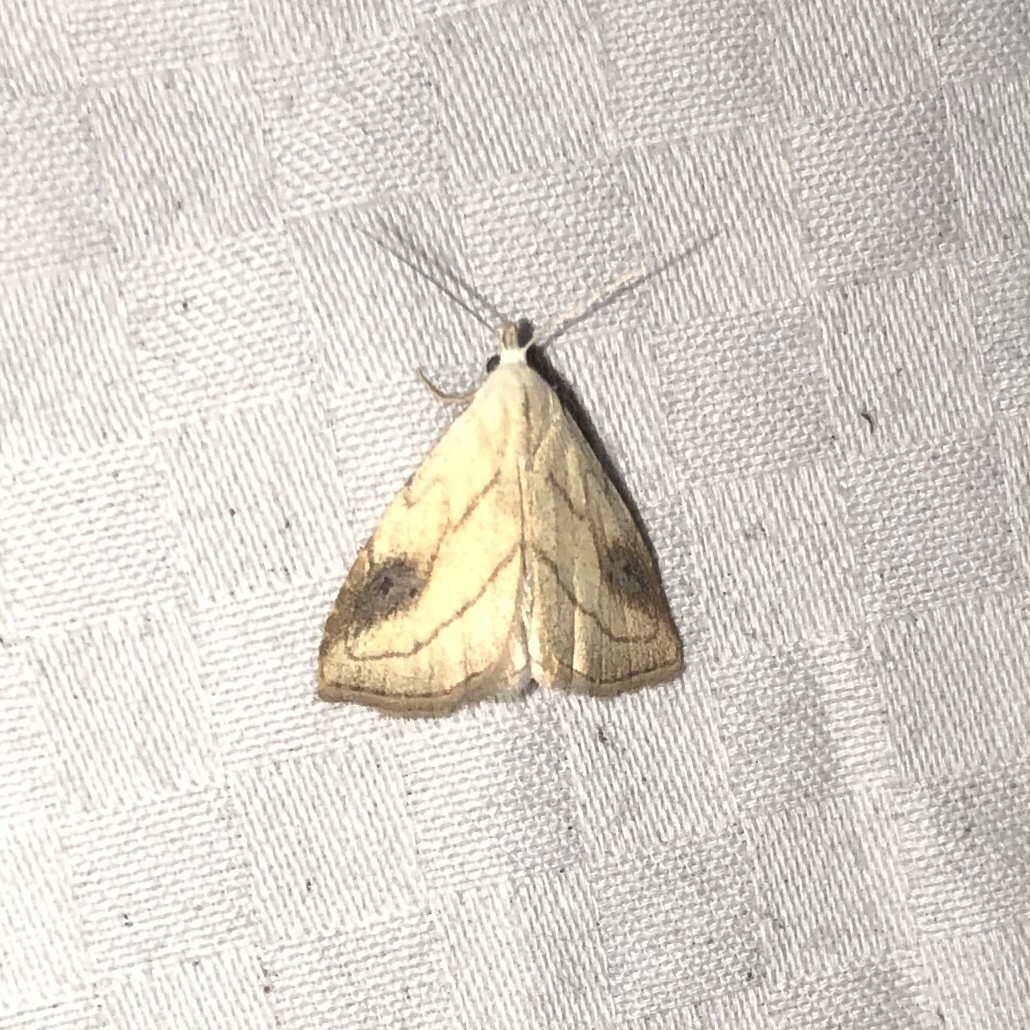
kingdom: Animalia
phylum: Arthropoda
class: Insecta
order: Lepidoptera
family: Erebidae
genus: Rivula
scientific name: Rivula propinqualis
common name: Spotted grass moth
